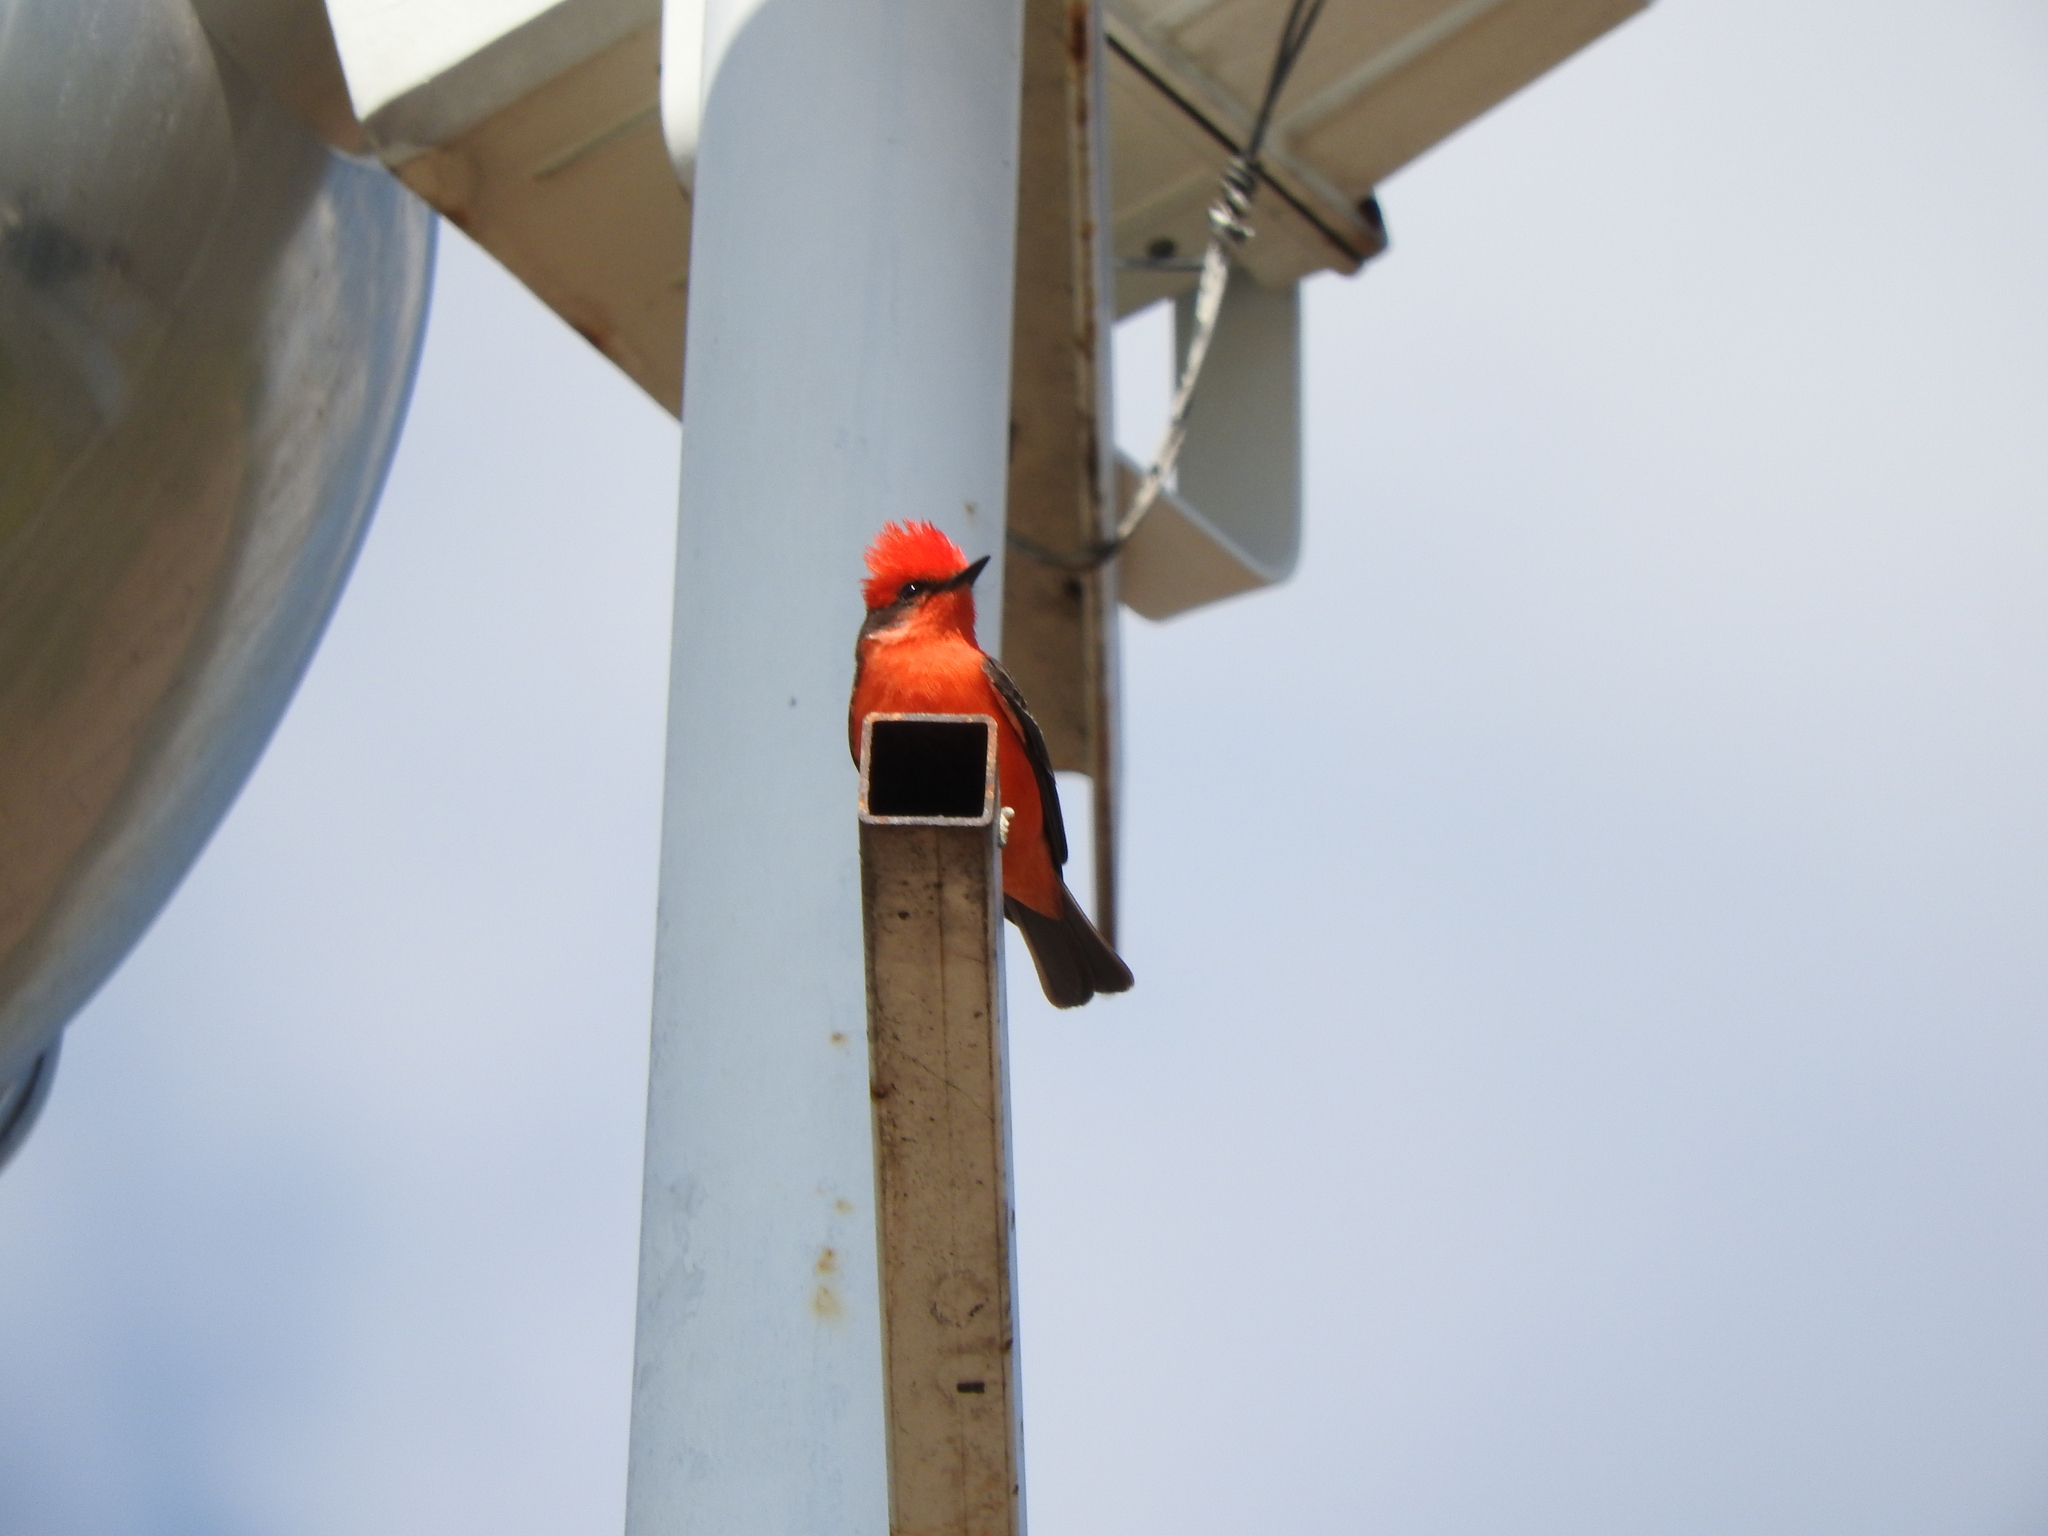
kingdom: Animalia
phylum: Chordata
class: Aves
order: Passeriformes
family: Tyrannidae
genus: Pyrocephalus
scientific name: Pyrocephalus rubinus
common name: Vermilion flycatcher
